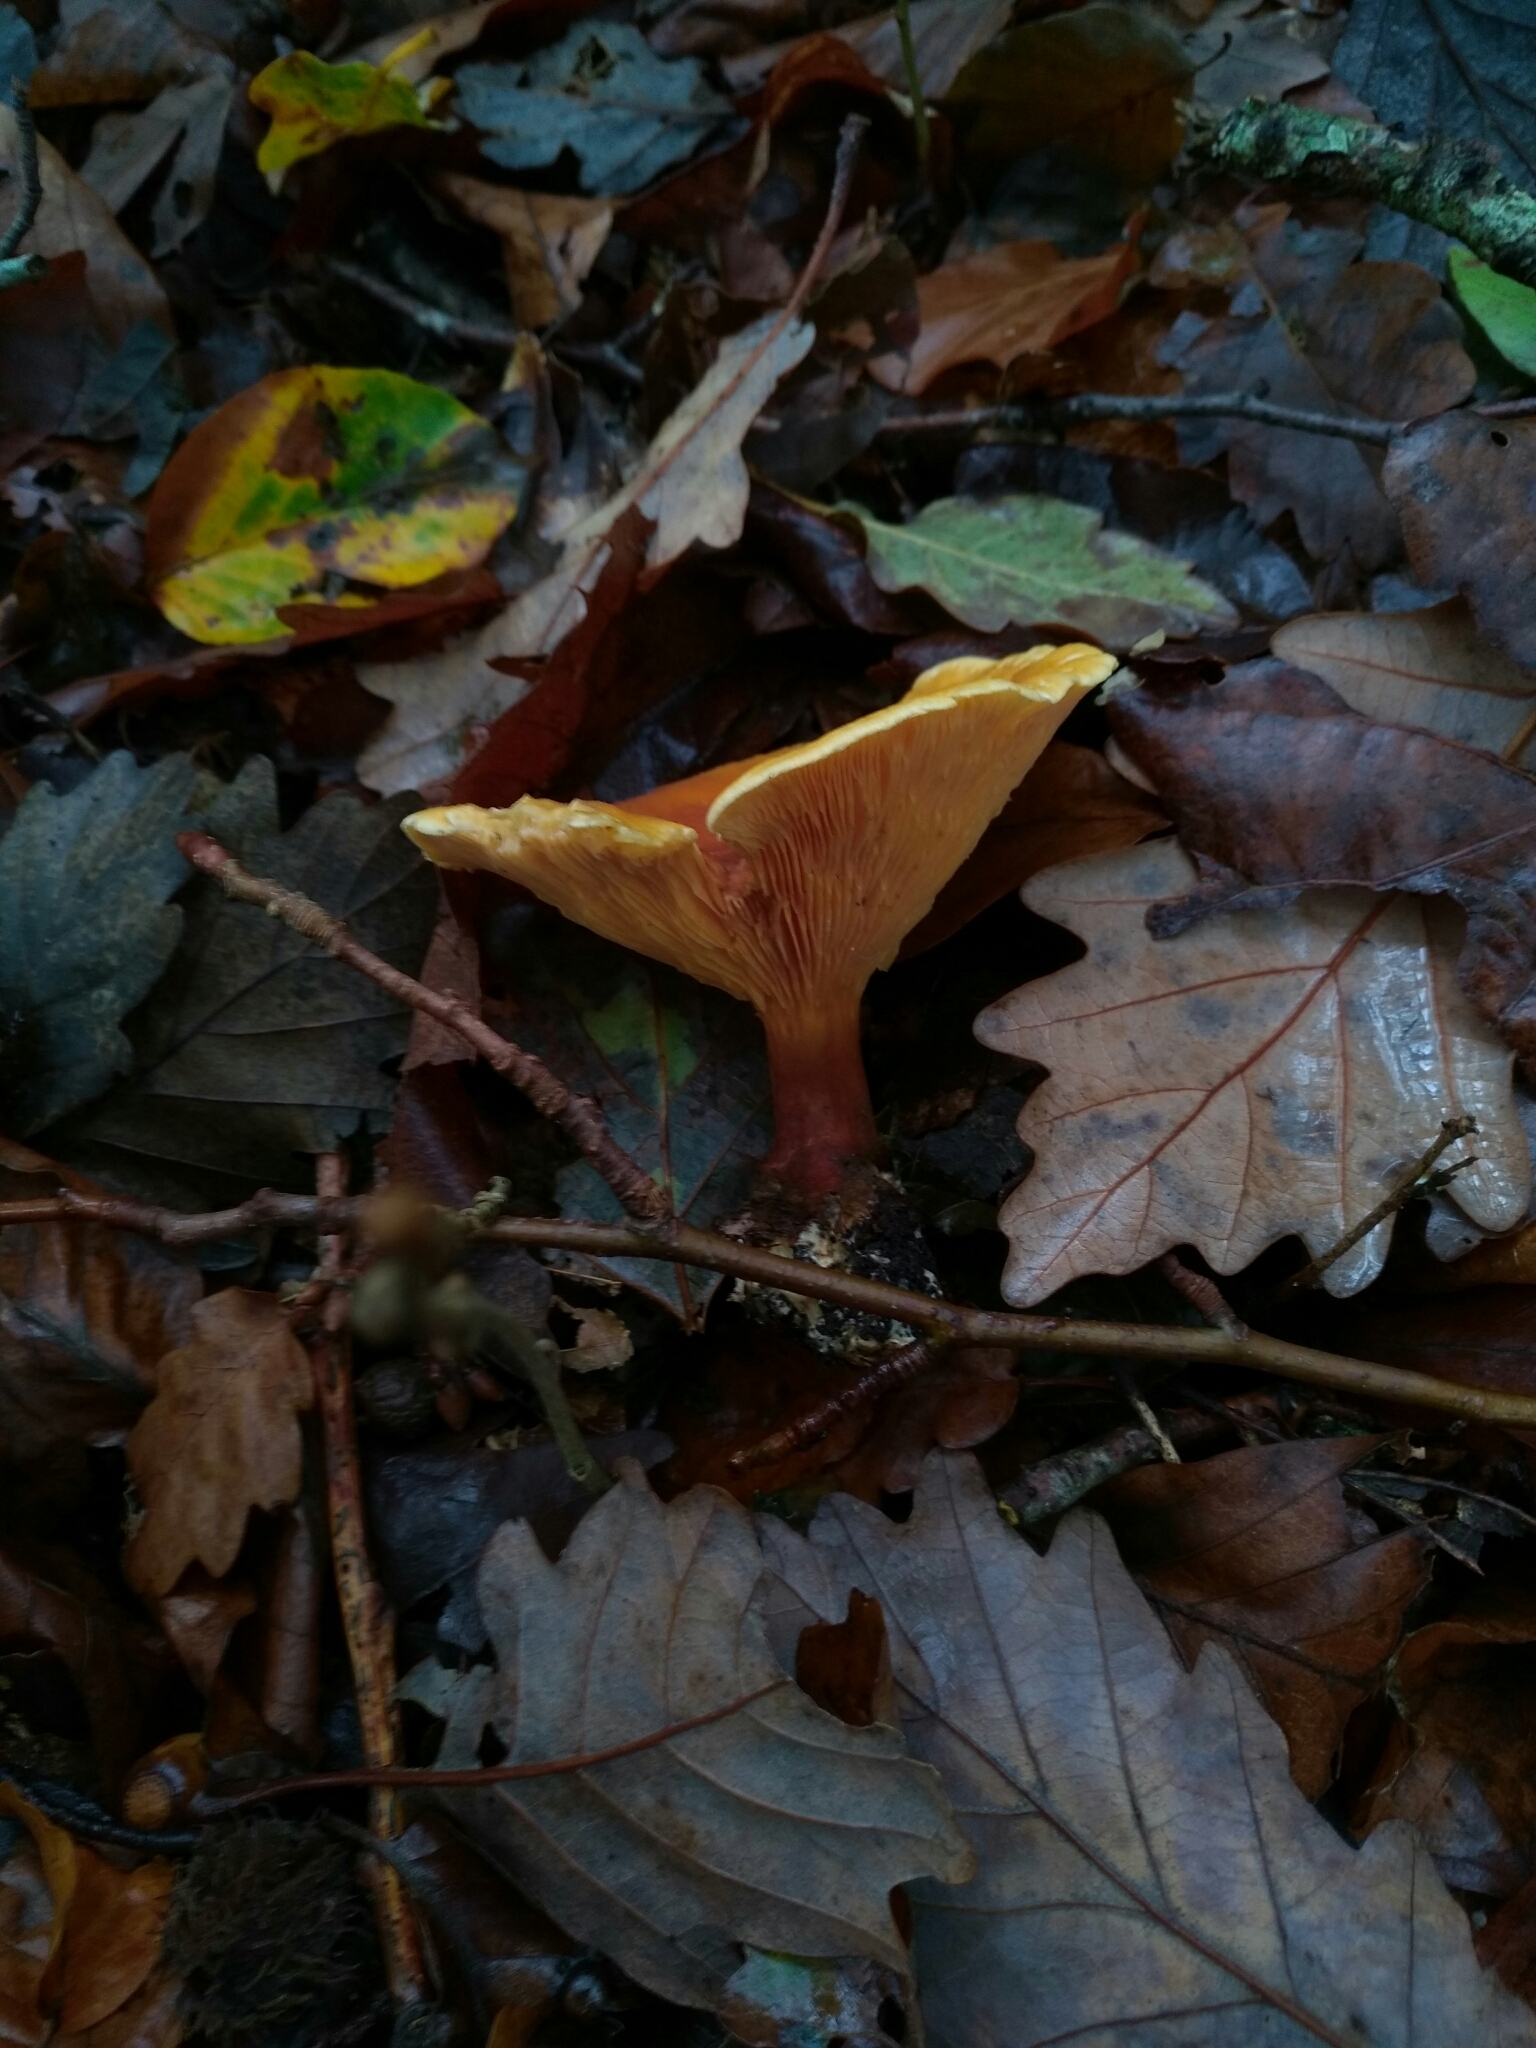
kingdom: Fungi
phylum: Basidiomycota
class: Agaricomycetes
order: Boletales
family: Hygrophoropsidaceae
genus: Hygrophoropsis
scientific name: Hygrophoropsis aurantiaca
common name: False chanterelle
